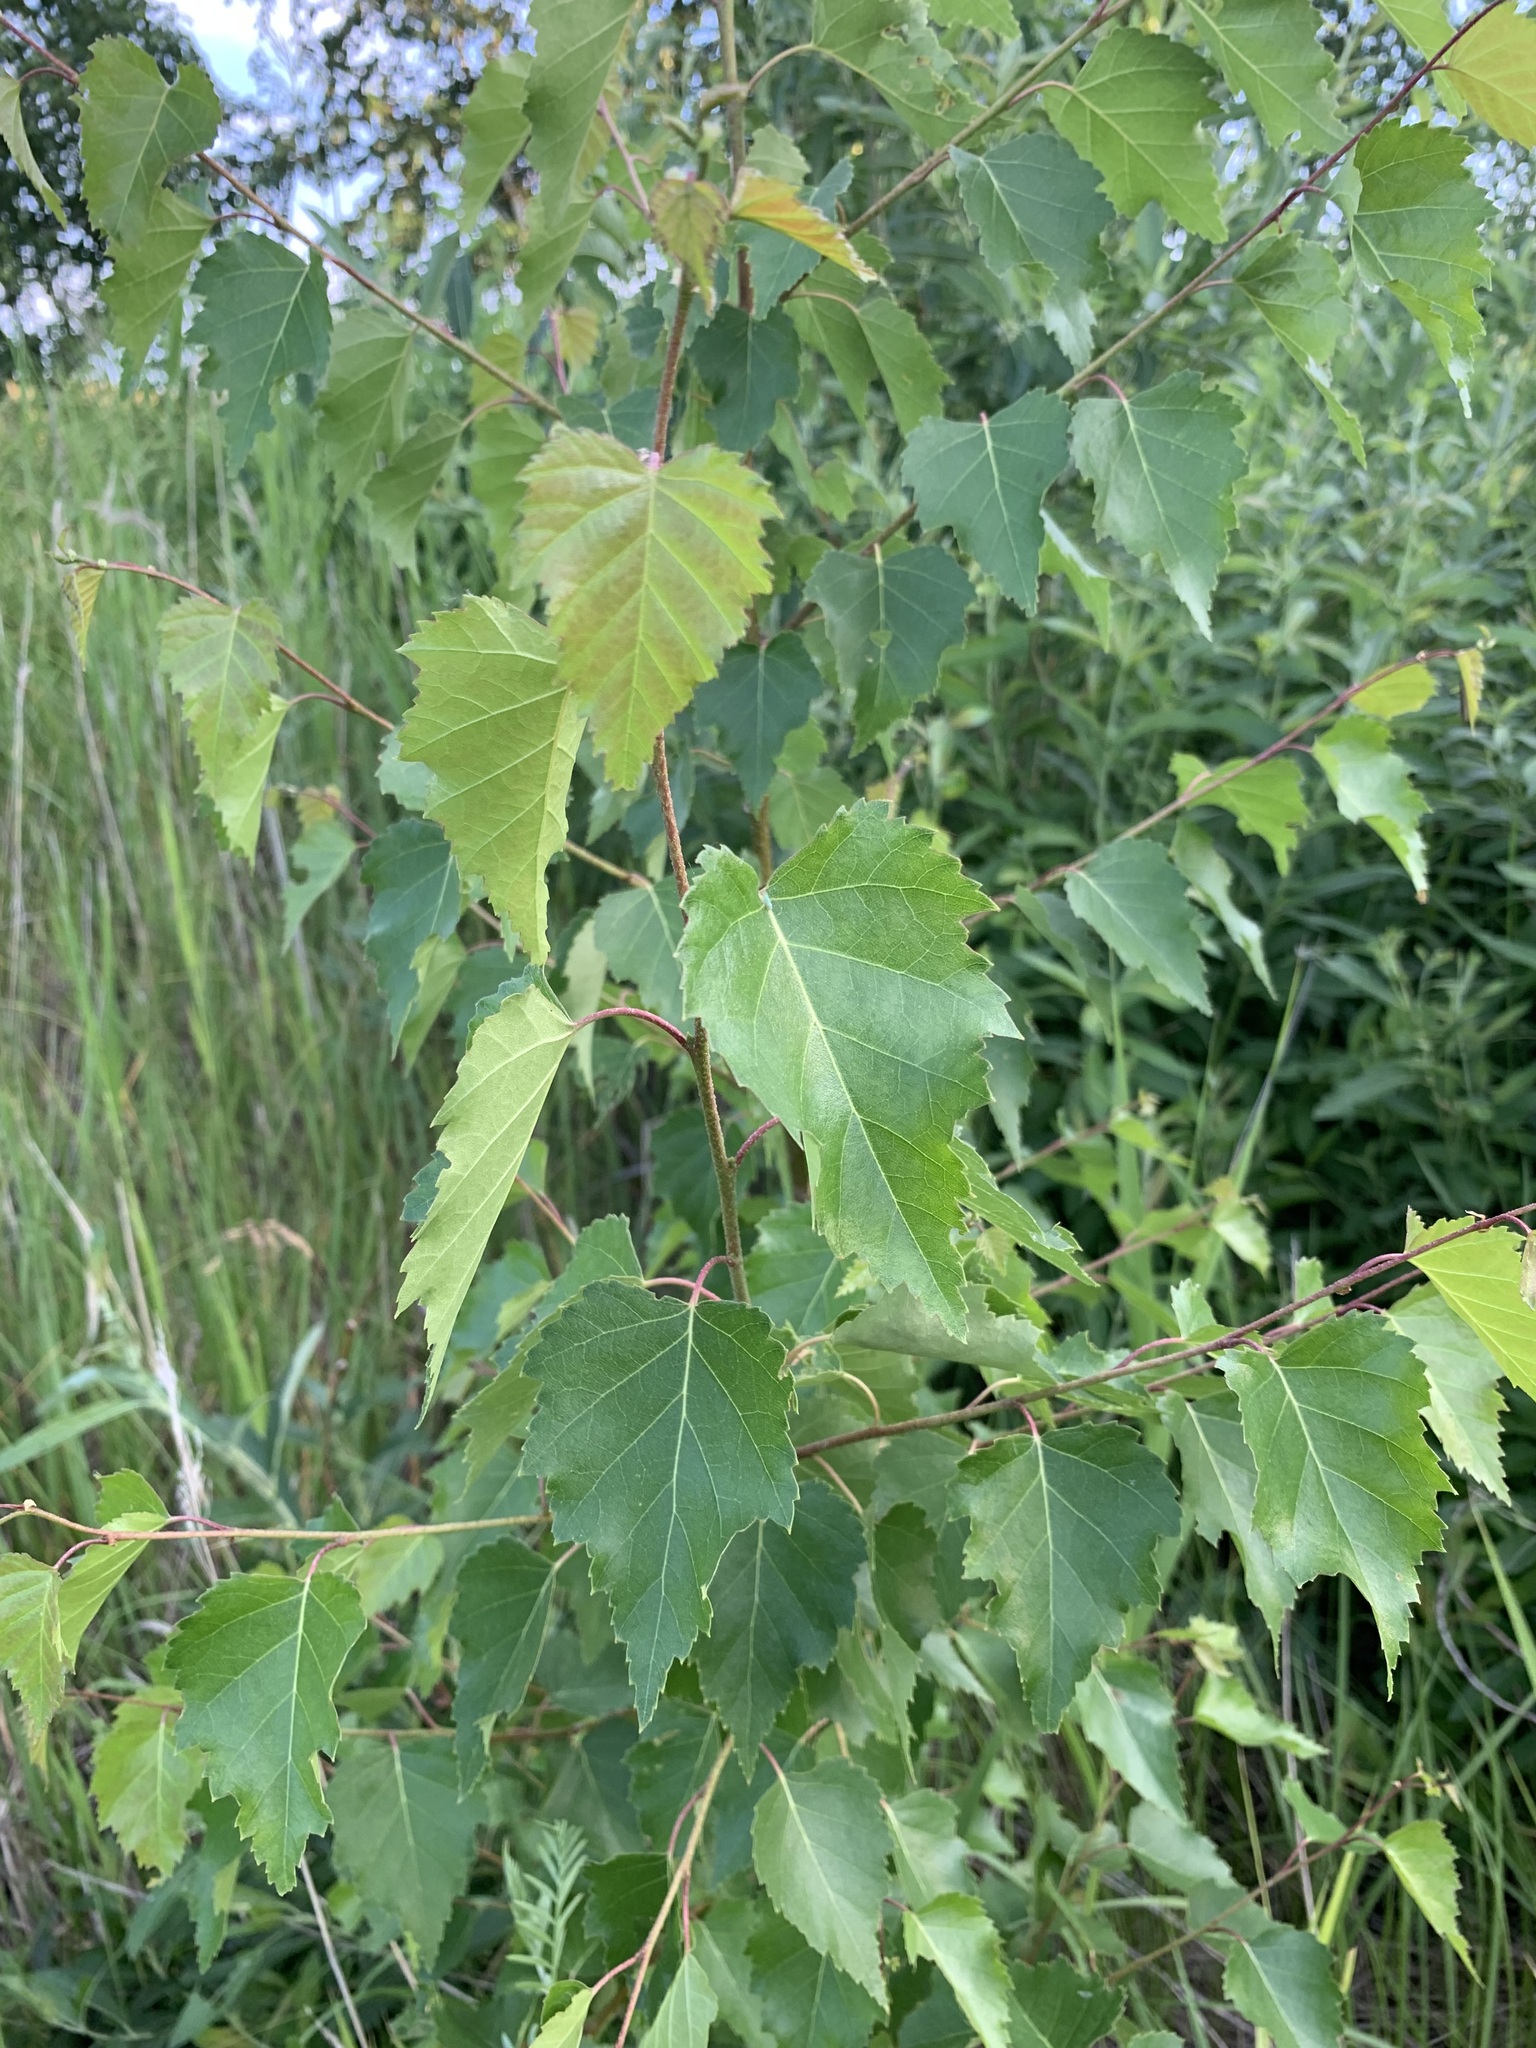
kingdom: Plantae
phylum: Tracheophyta
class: Magnoliopsida
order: Fagales
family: Betulaceae
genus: Betula
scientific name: Betula pendula
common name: Silver birch
